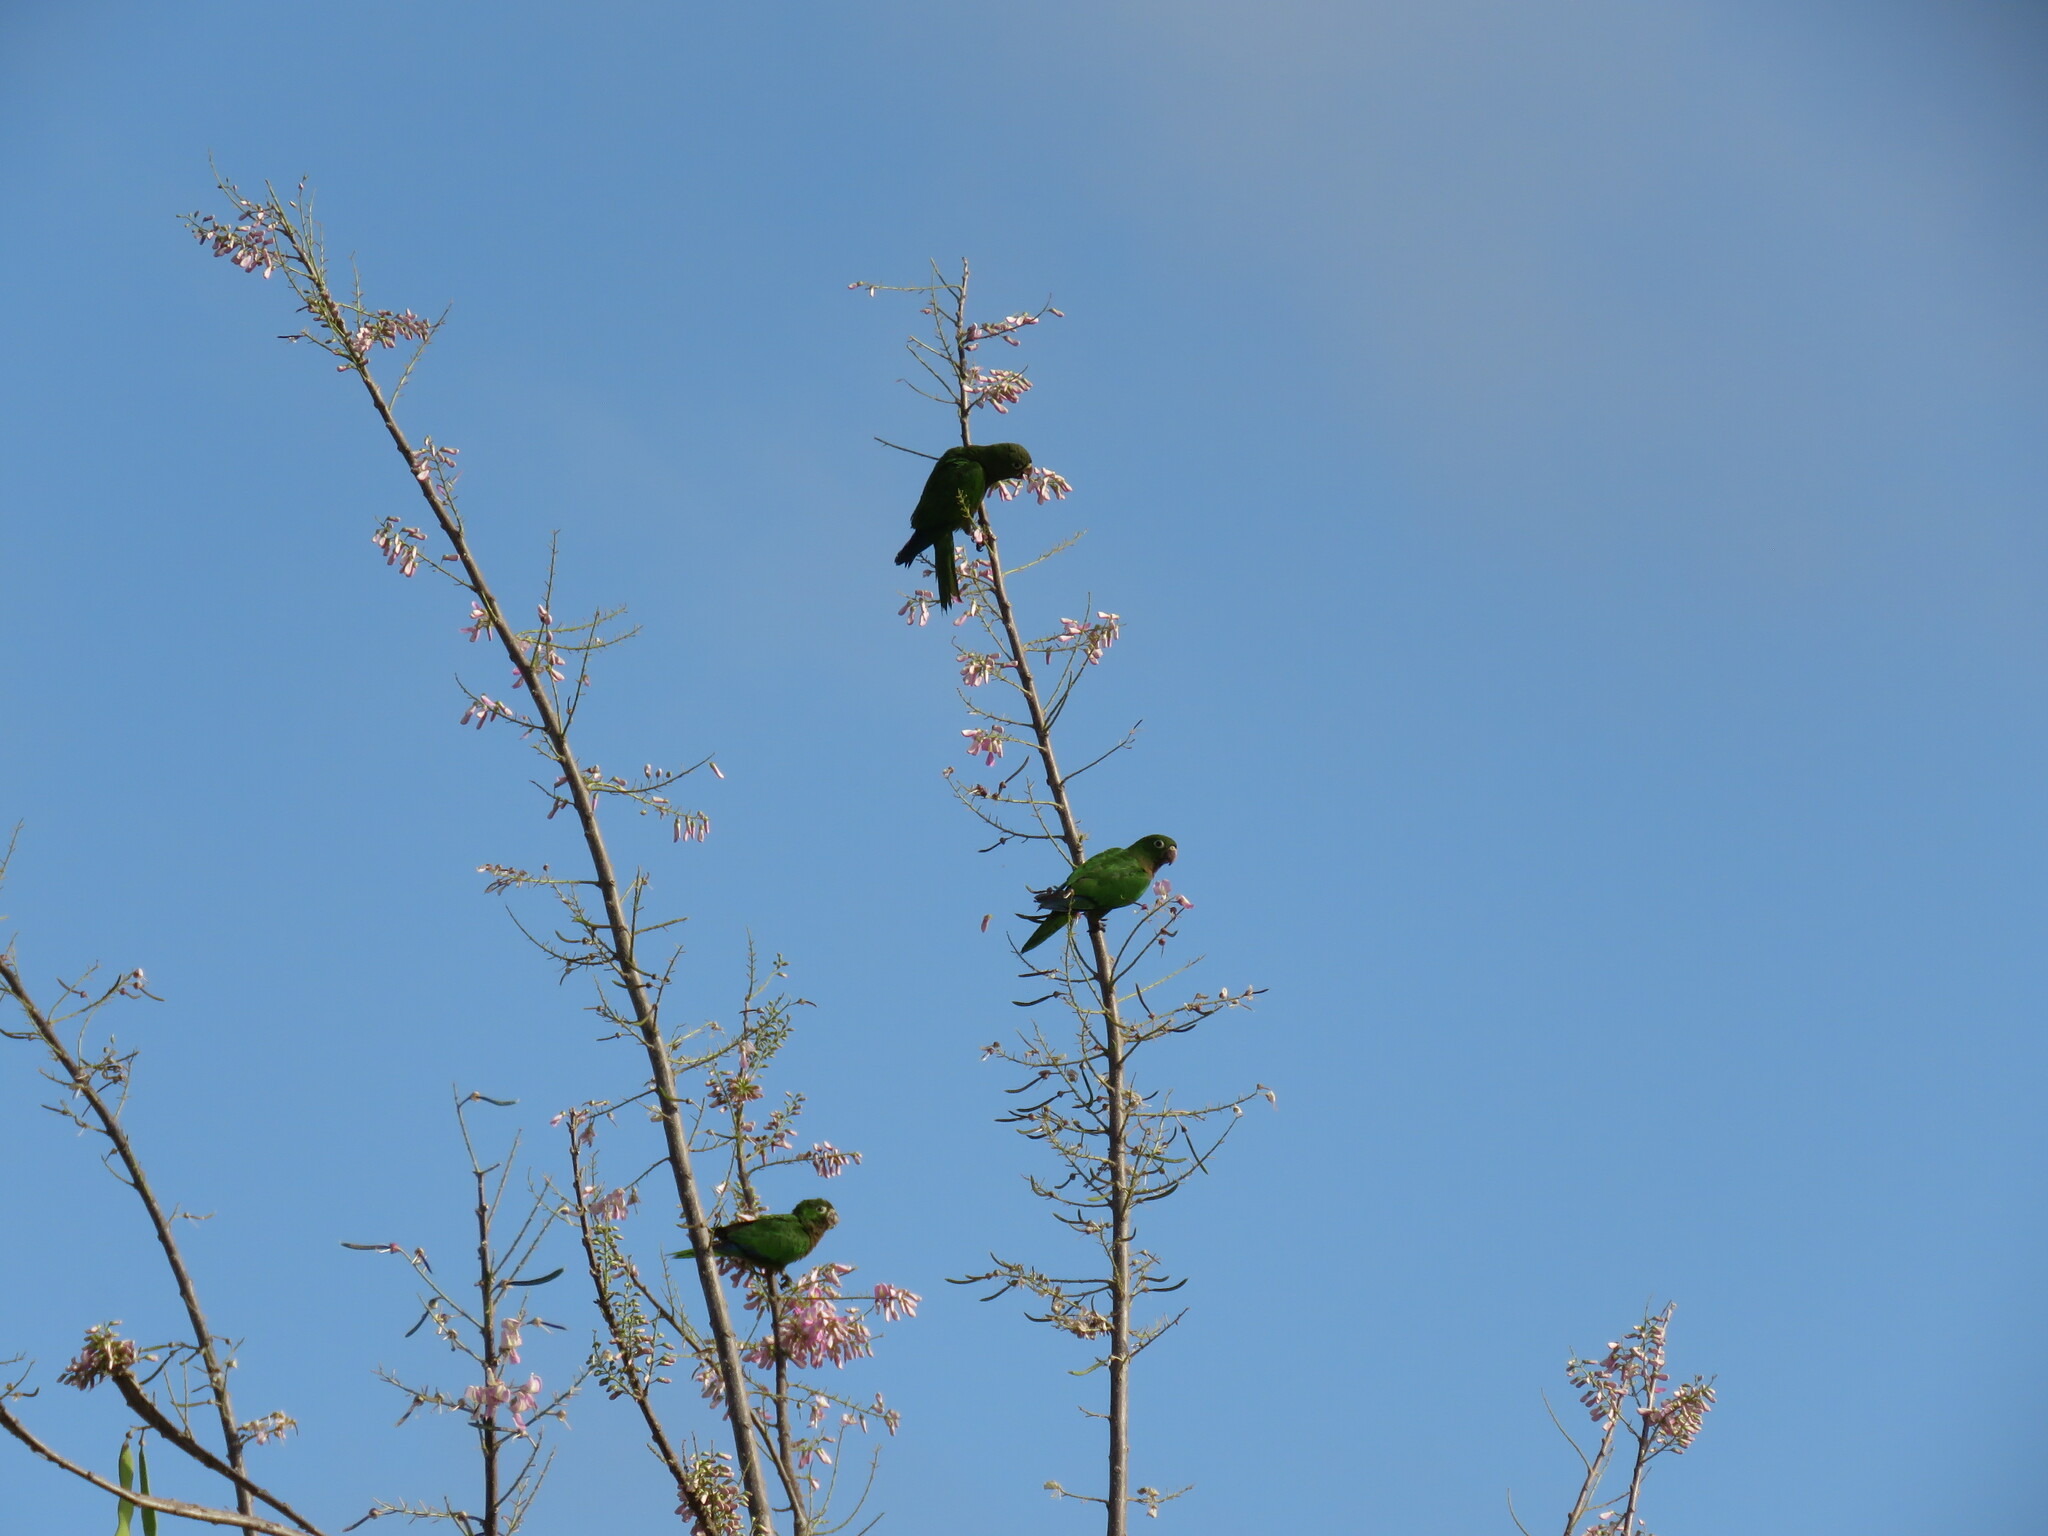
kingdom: Animalia
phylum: Chordata
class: Aves
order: Psittaciformes
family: Psittacidae
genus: Aratinga
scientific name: Aratinga nana
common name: Olive-throated parakeet
